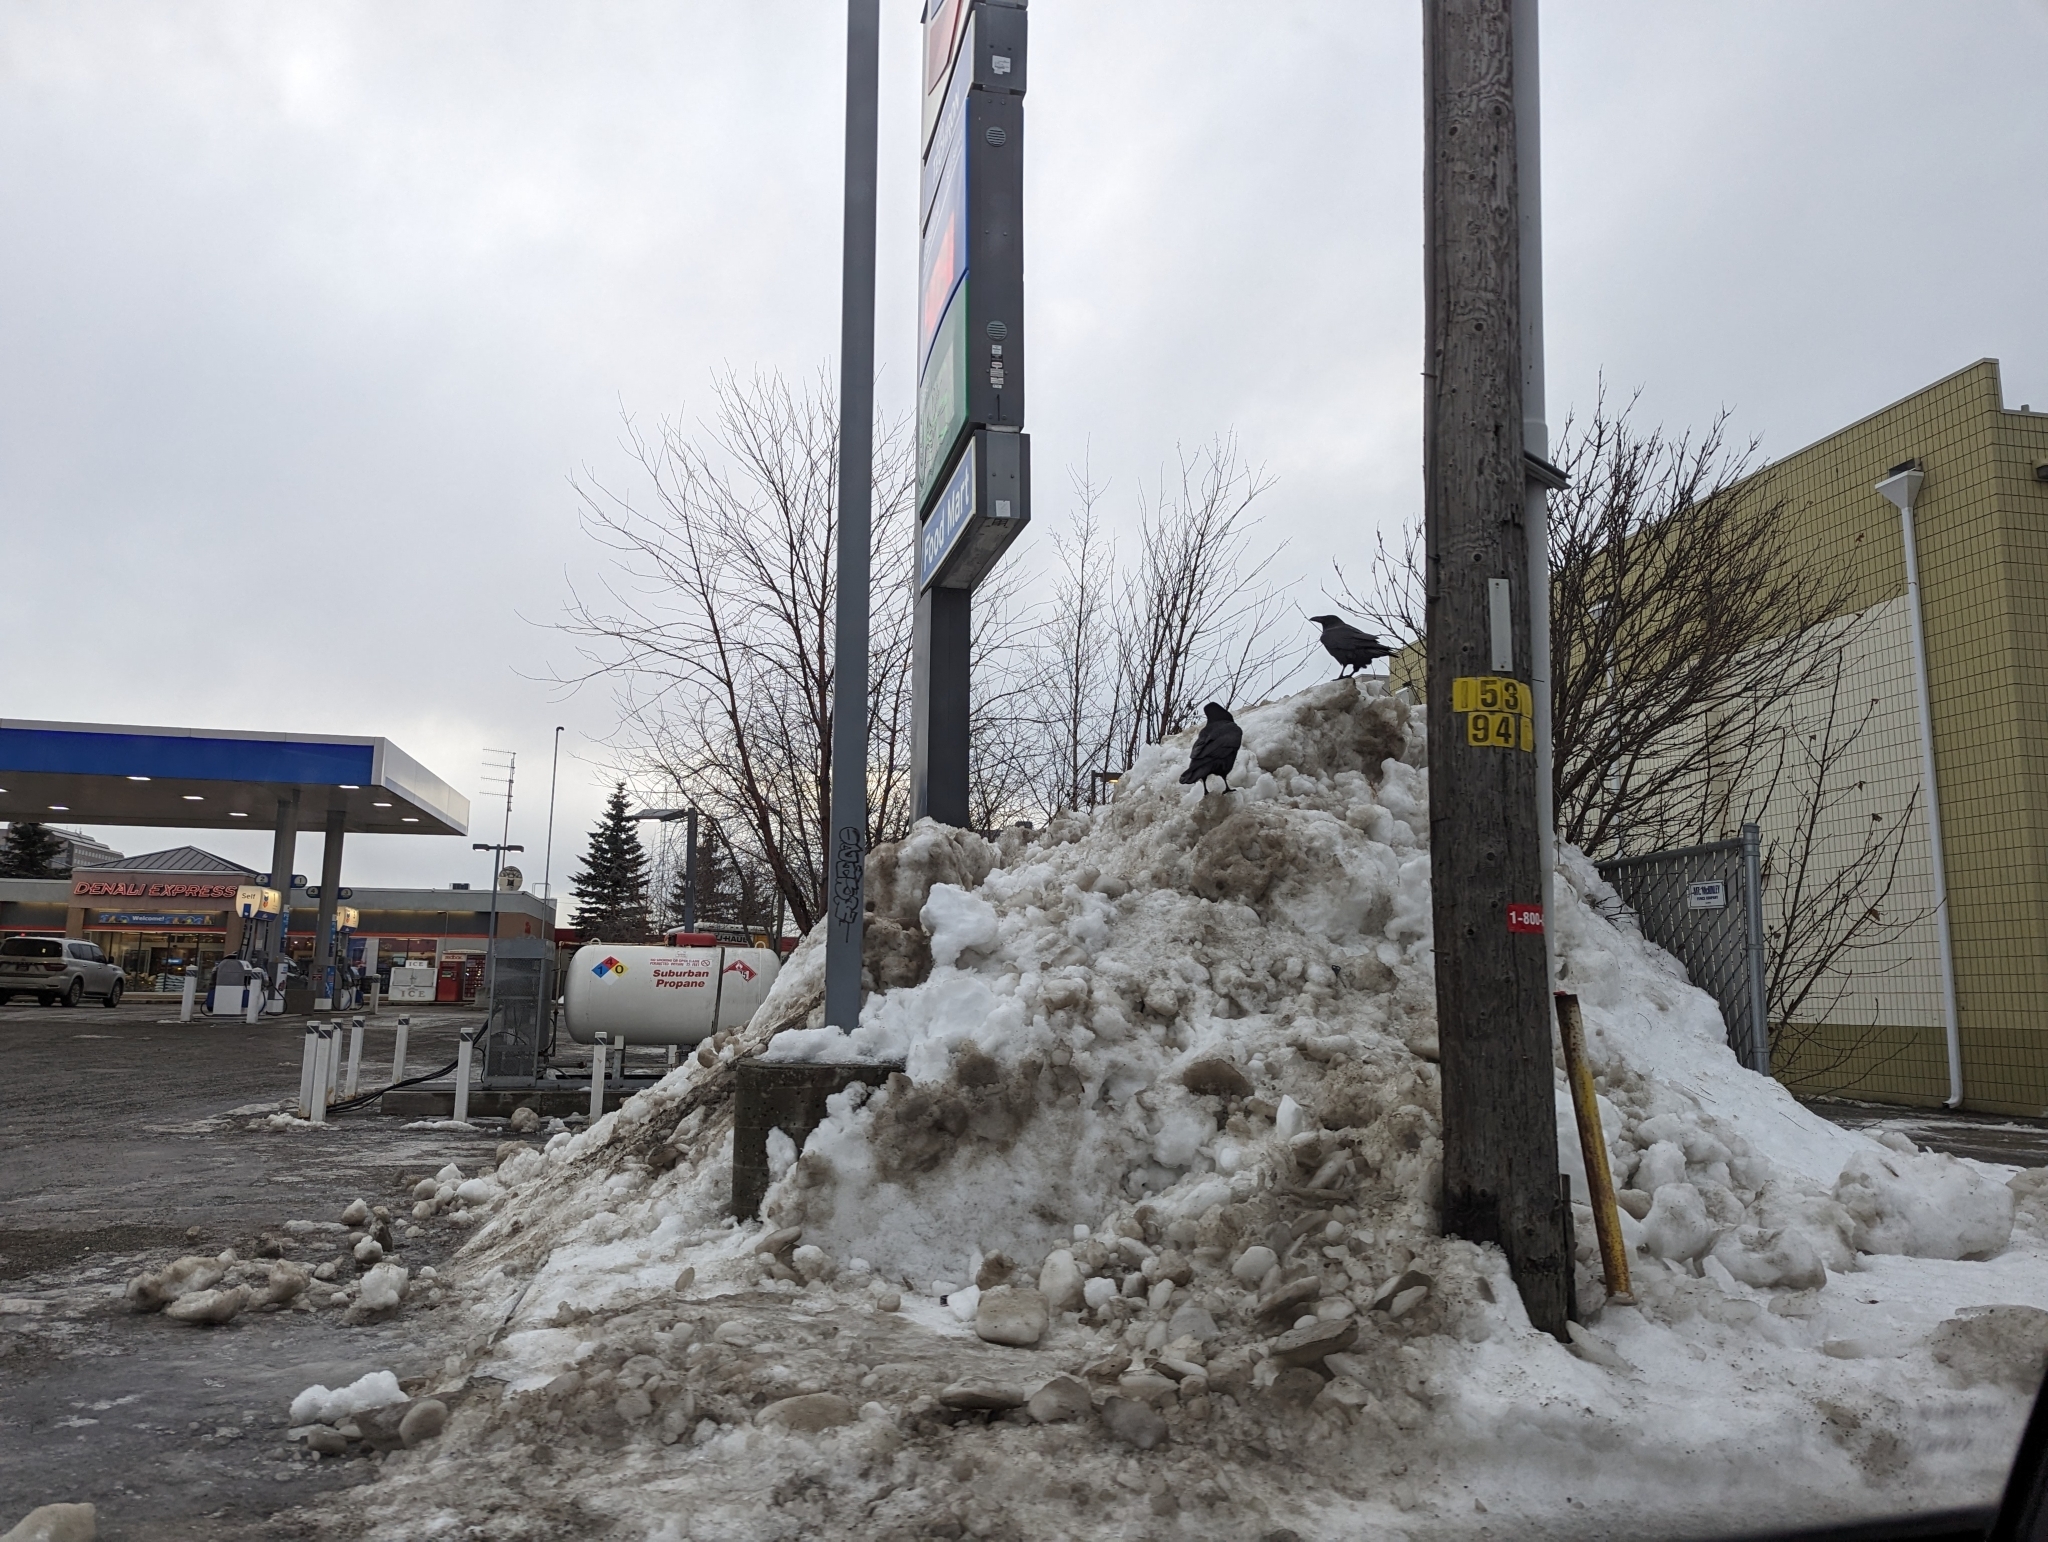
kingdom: Animalia
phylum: Chordata
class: Aves
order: Passeriformes
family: Corvidae
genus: Corvus
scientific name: Corvus corax
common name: Common raven
